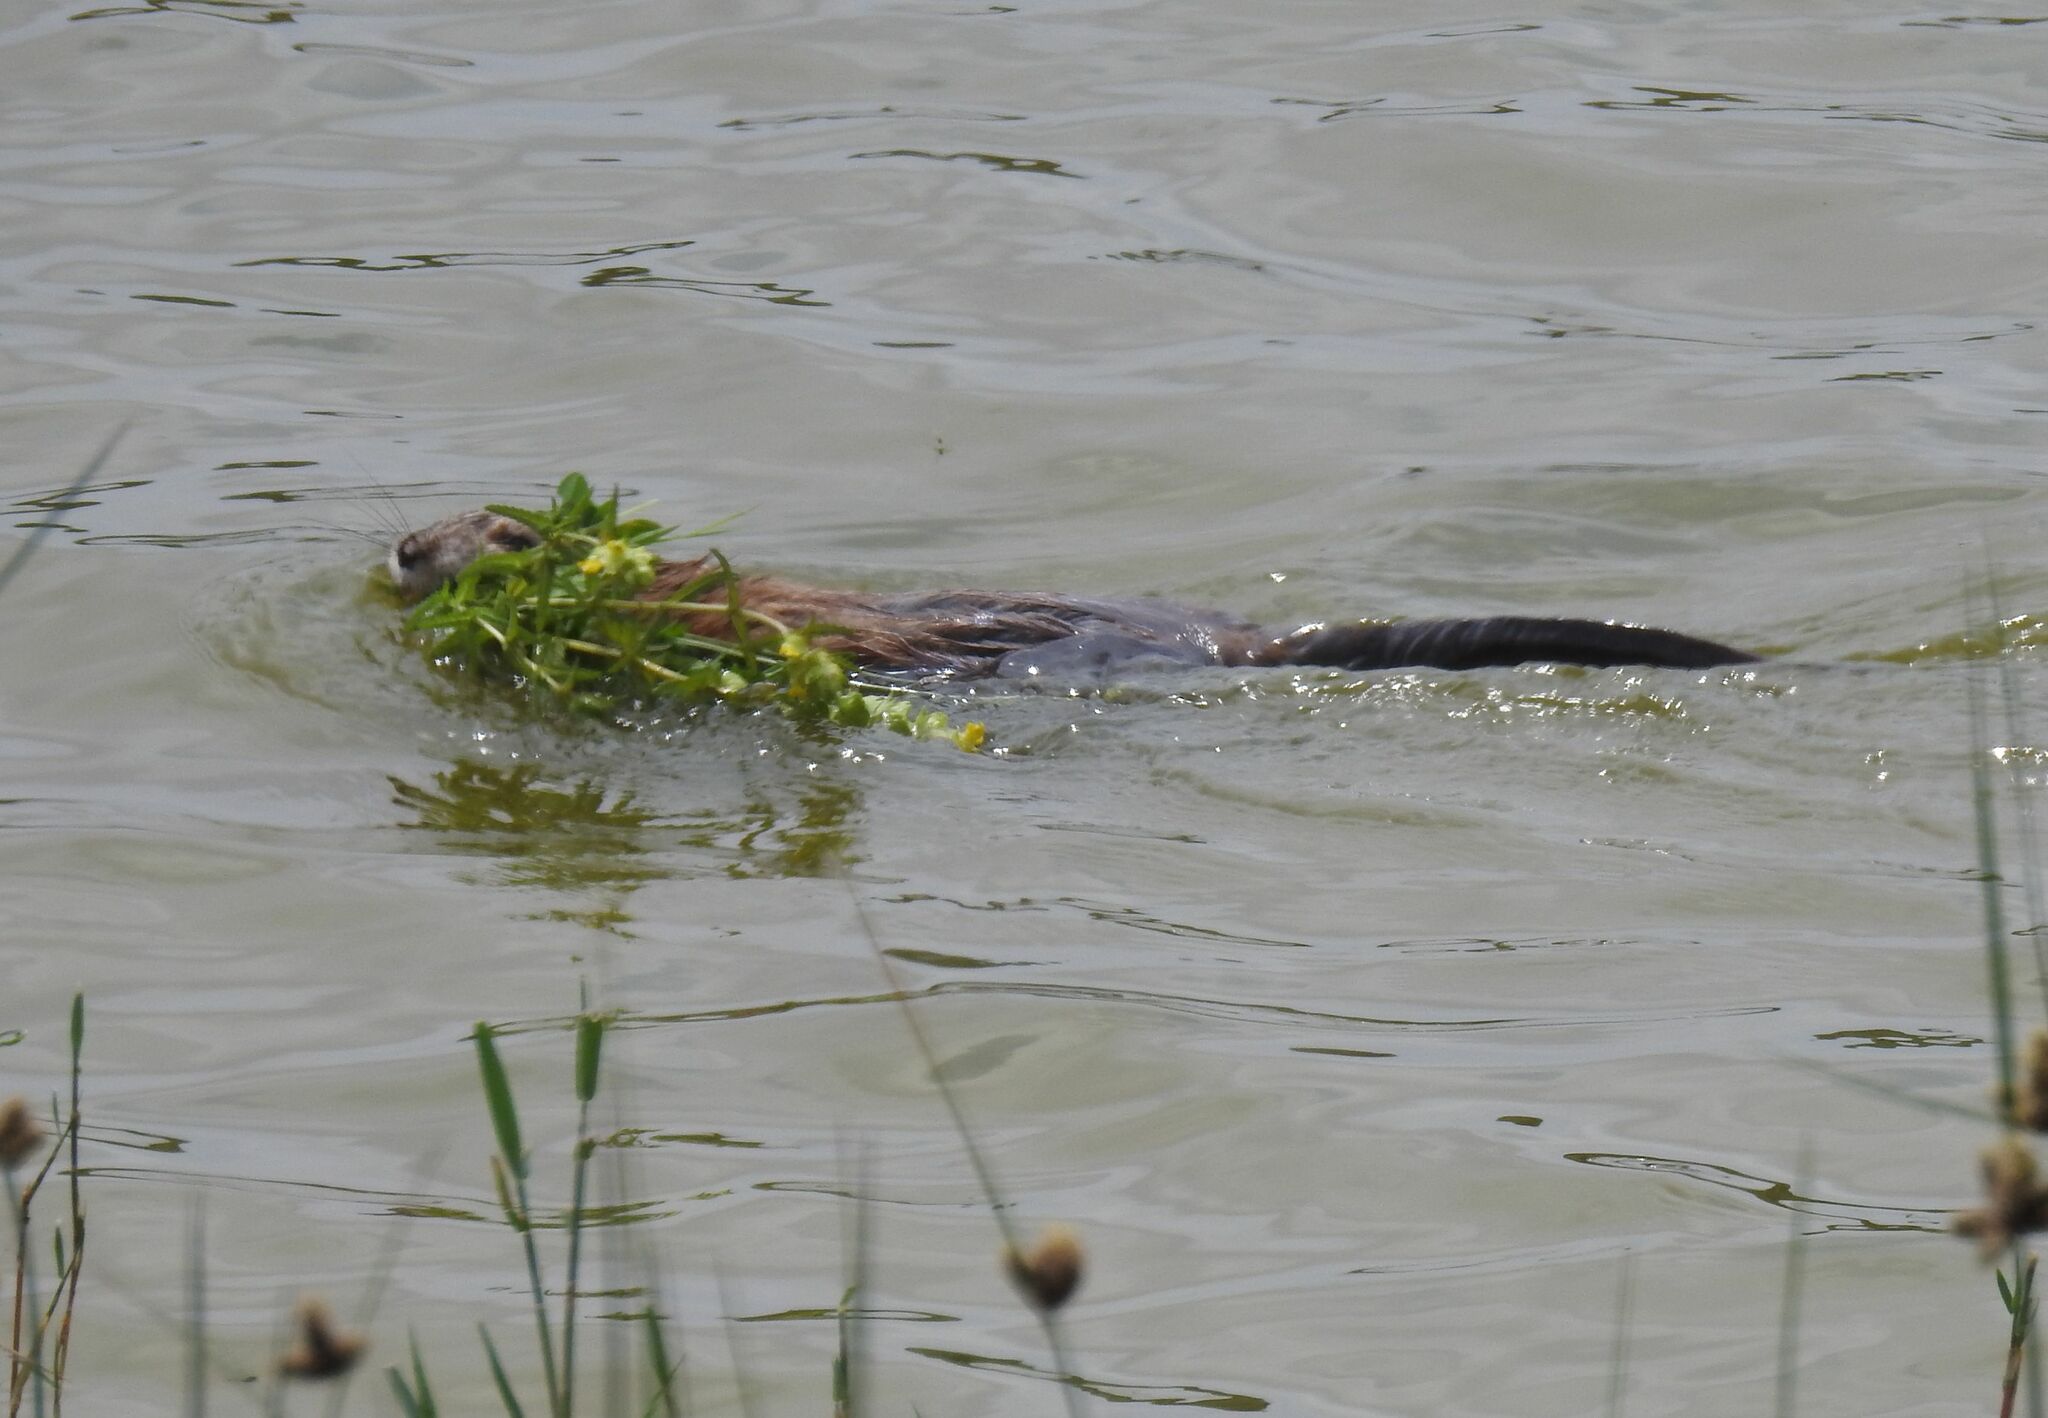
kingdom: Animalia
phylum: Chordata
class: Mammalia
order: Rodentia
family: Cricetidae
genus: Ondatra
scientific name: Ondatra zibethicus
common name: Muskrat
